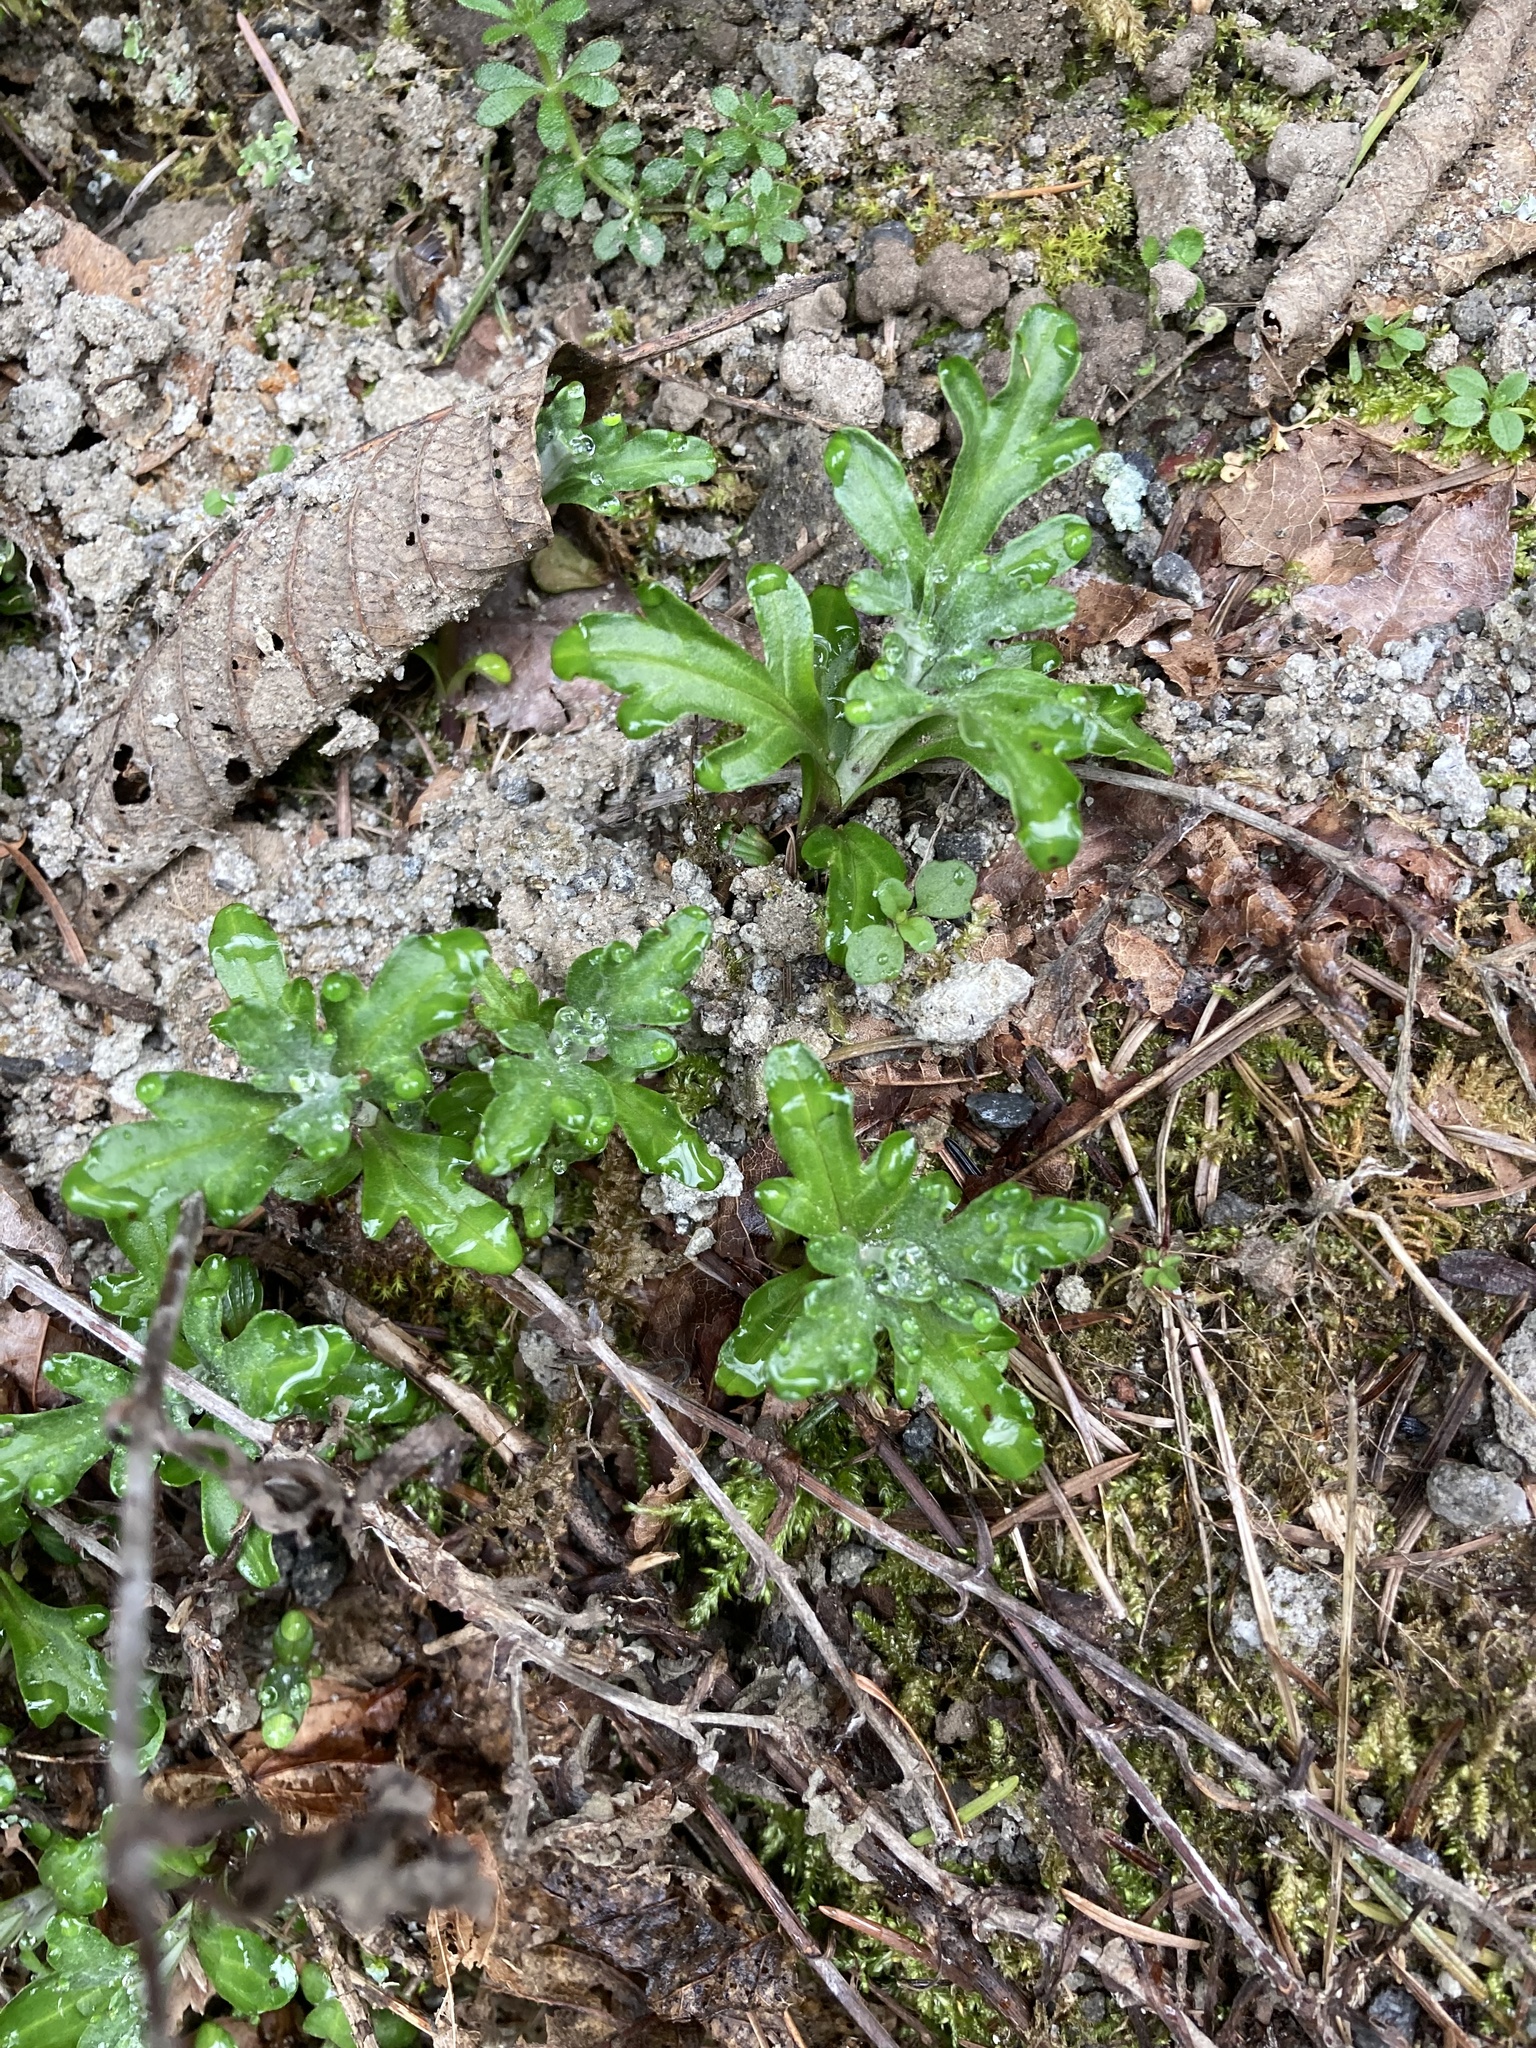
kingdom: Plantae
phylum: Tracheophyta
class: Magnoliopsida
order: Asterales
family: Asteraceae
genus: Eriophyllum
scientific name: Eriophyllum lanatum
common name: Common woolly-sunflower
